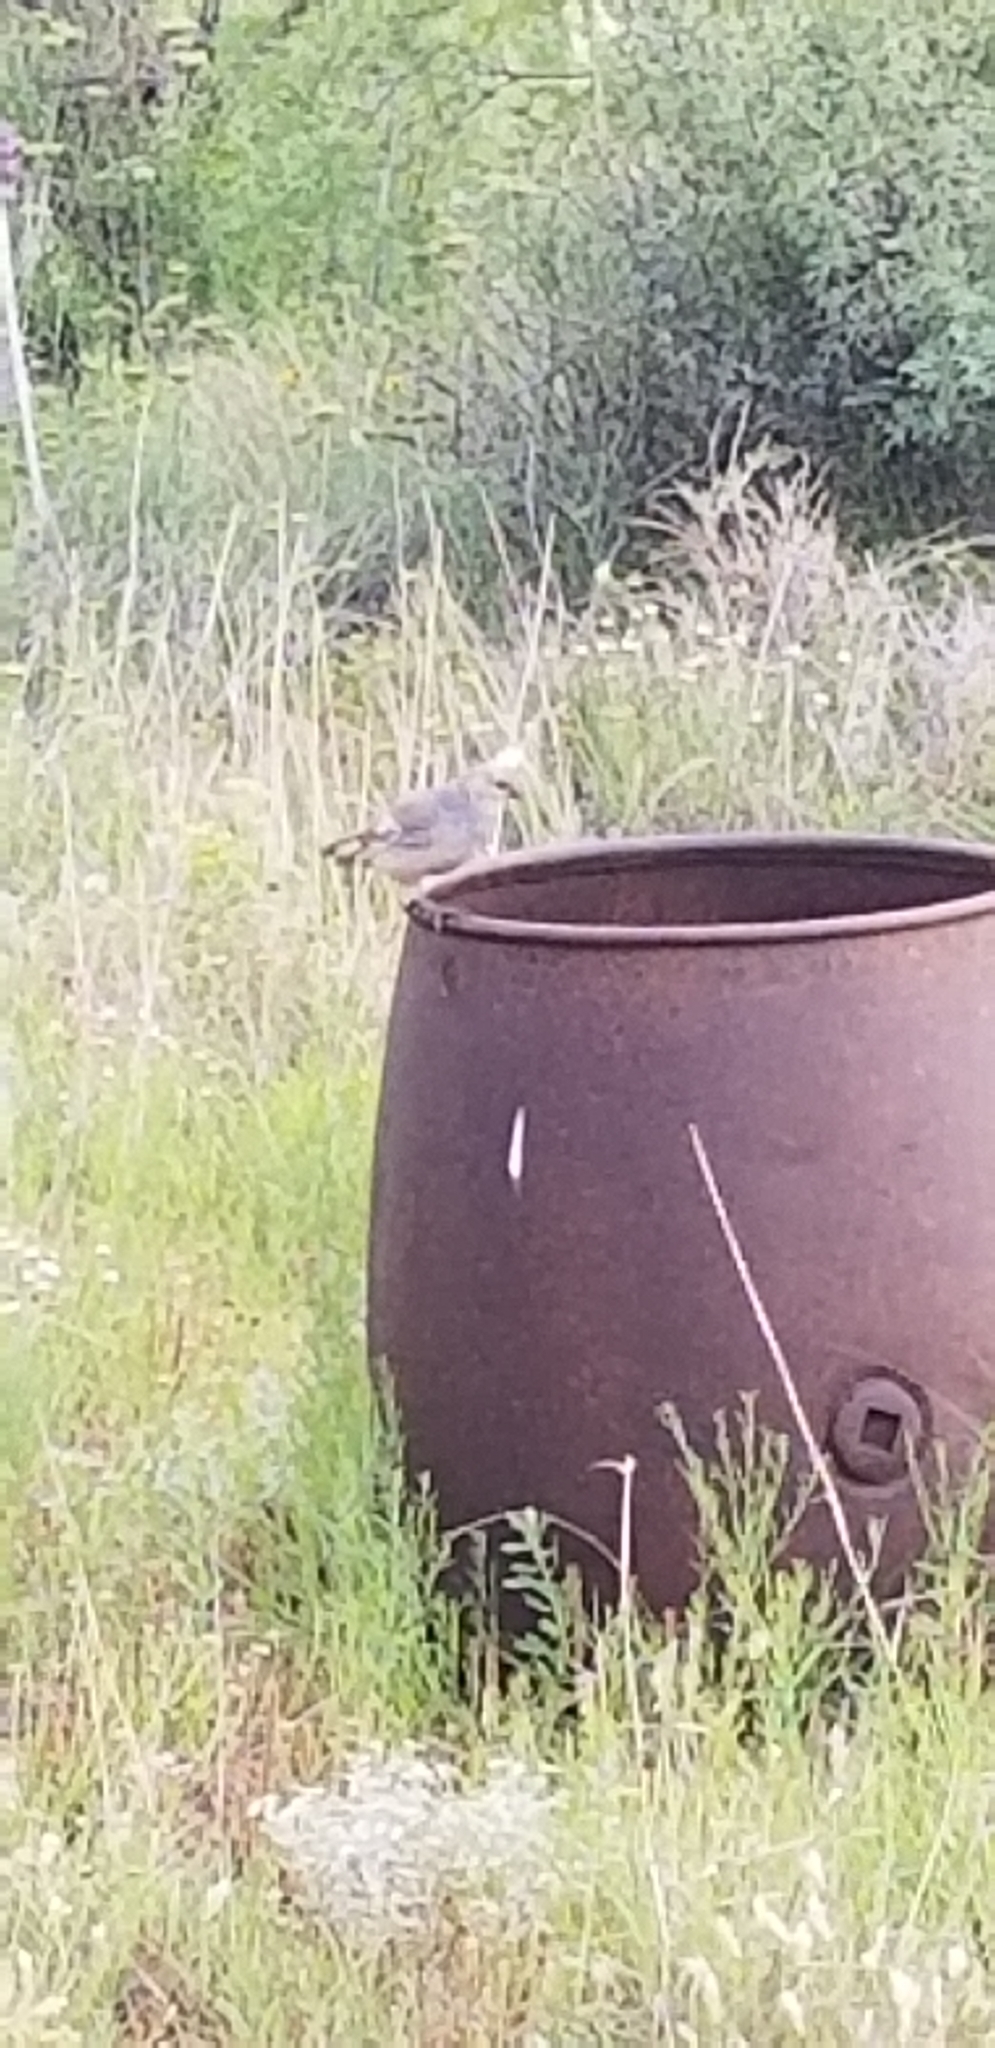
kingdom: Animalia
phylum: Chordata
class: Aves
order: Galliformes
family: Odontophoridae
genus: Callipepla
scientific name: Callipepla squamata
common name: Scaled quail
